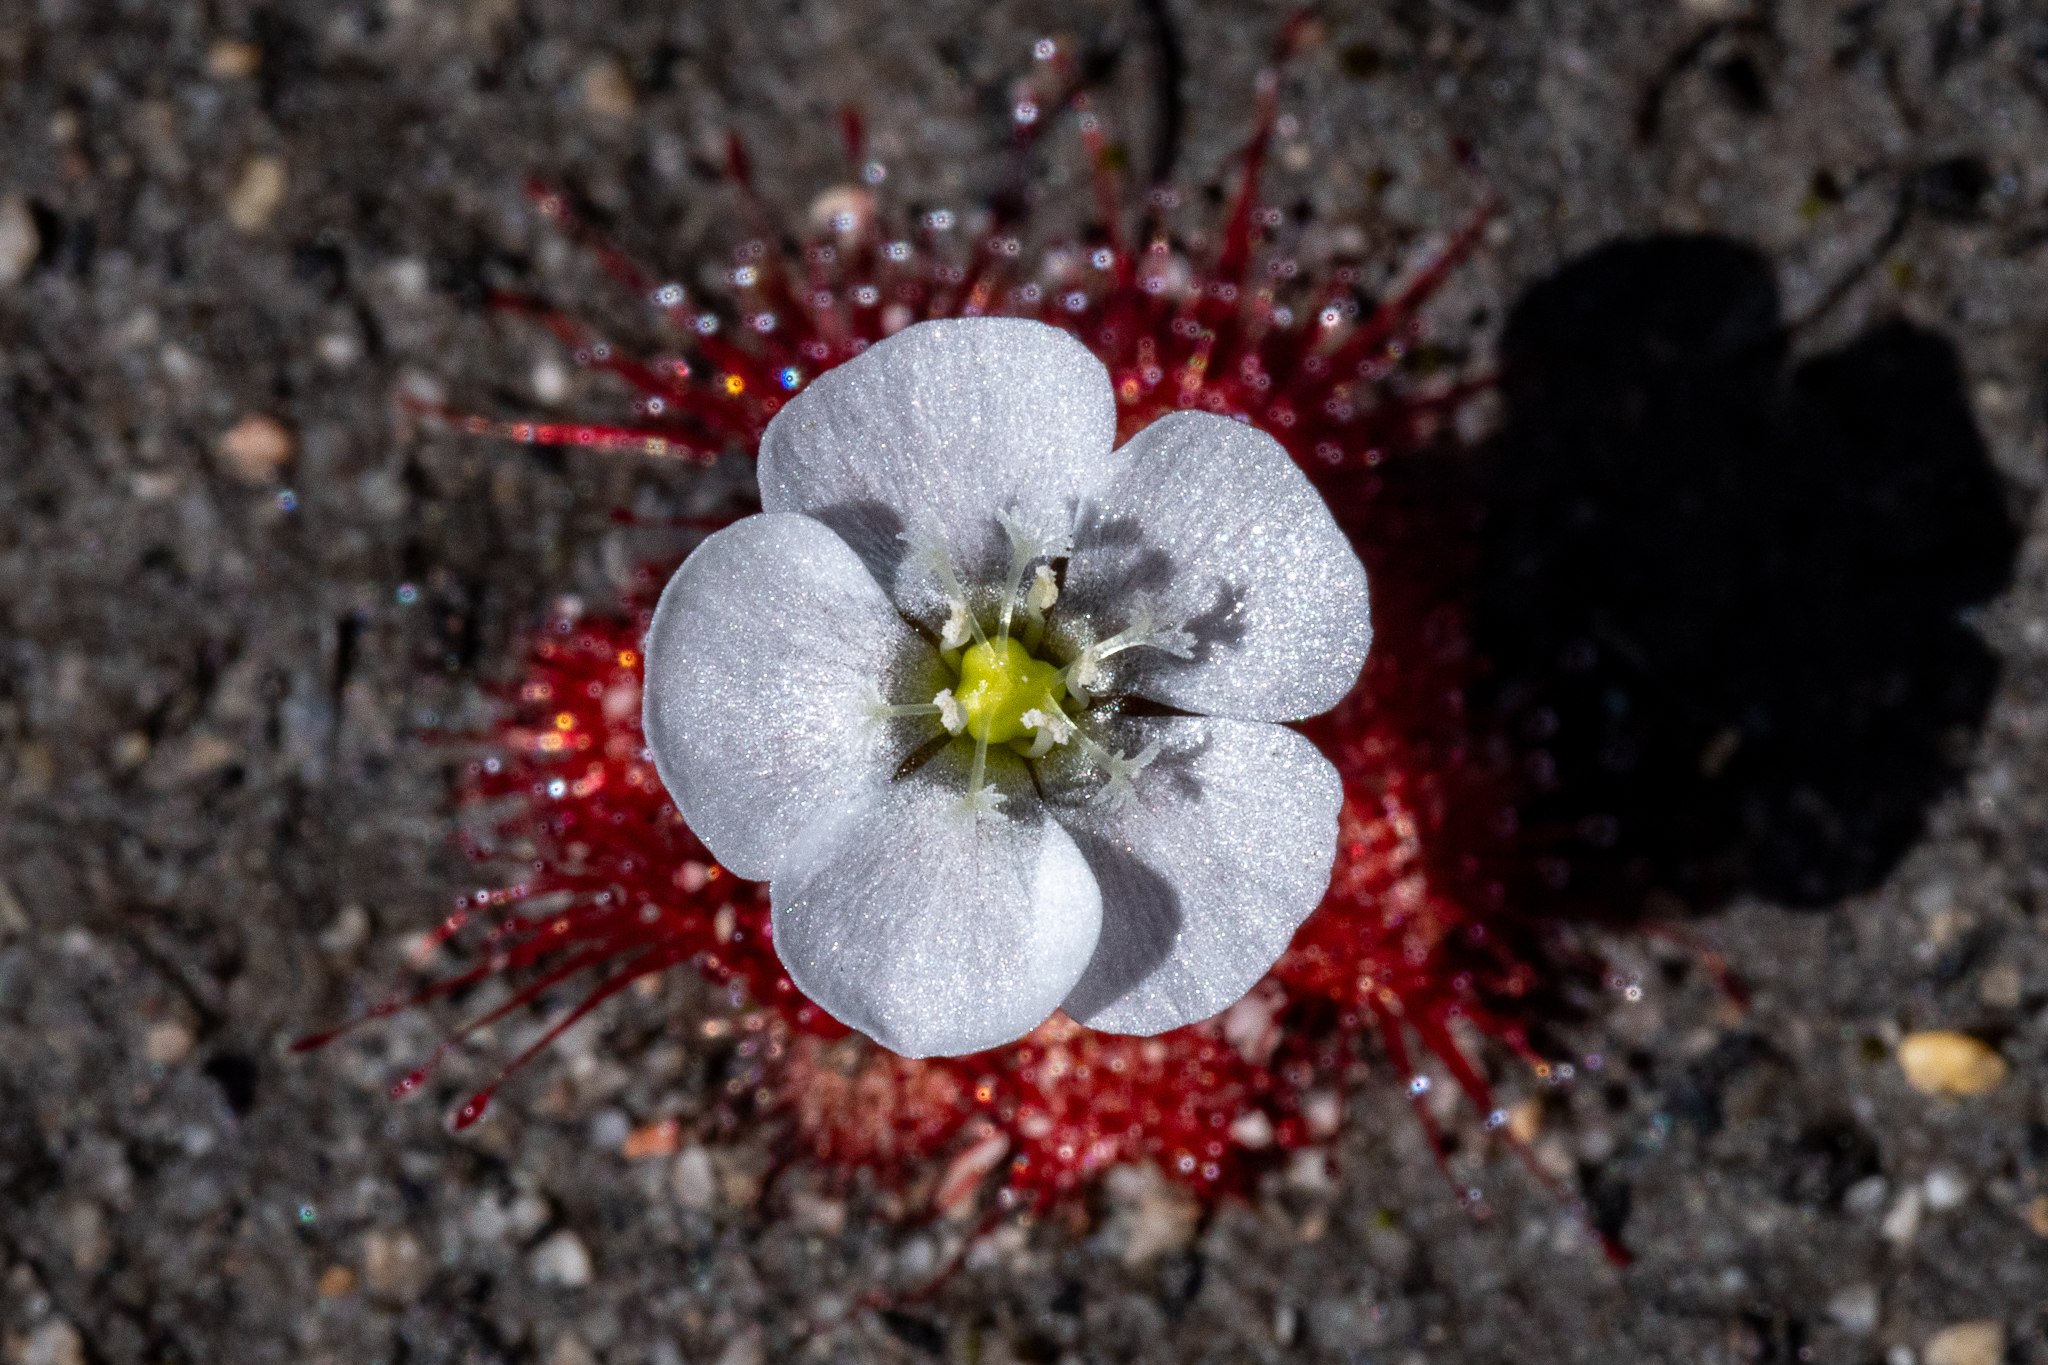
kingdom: Plantae
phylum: Tracheophyta
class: Magnoliopsida
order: Caryophyllales
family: Droseraceae
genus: Drosera
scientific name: Drosera trinervia
